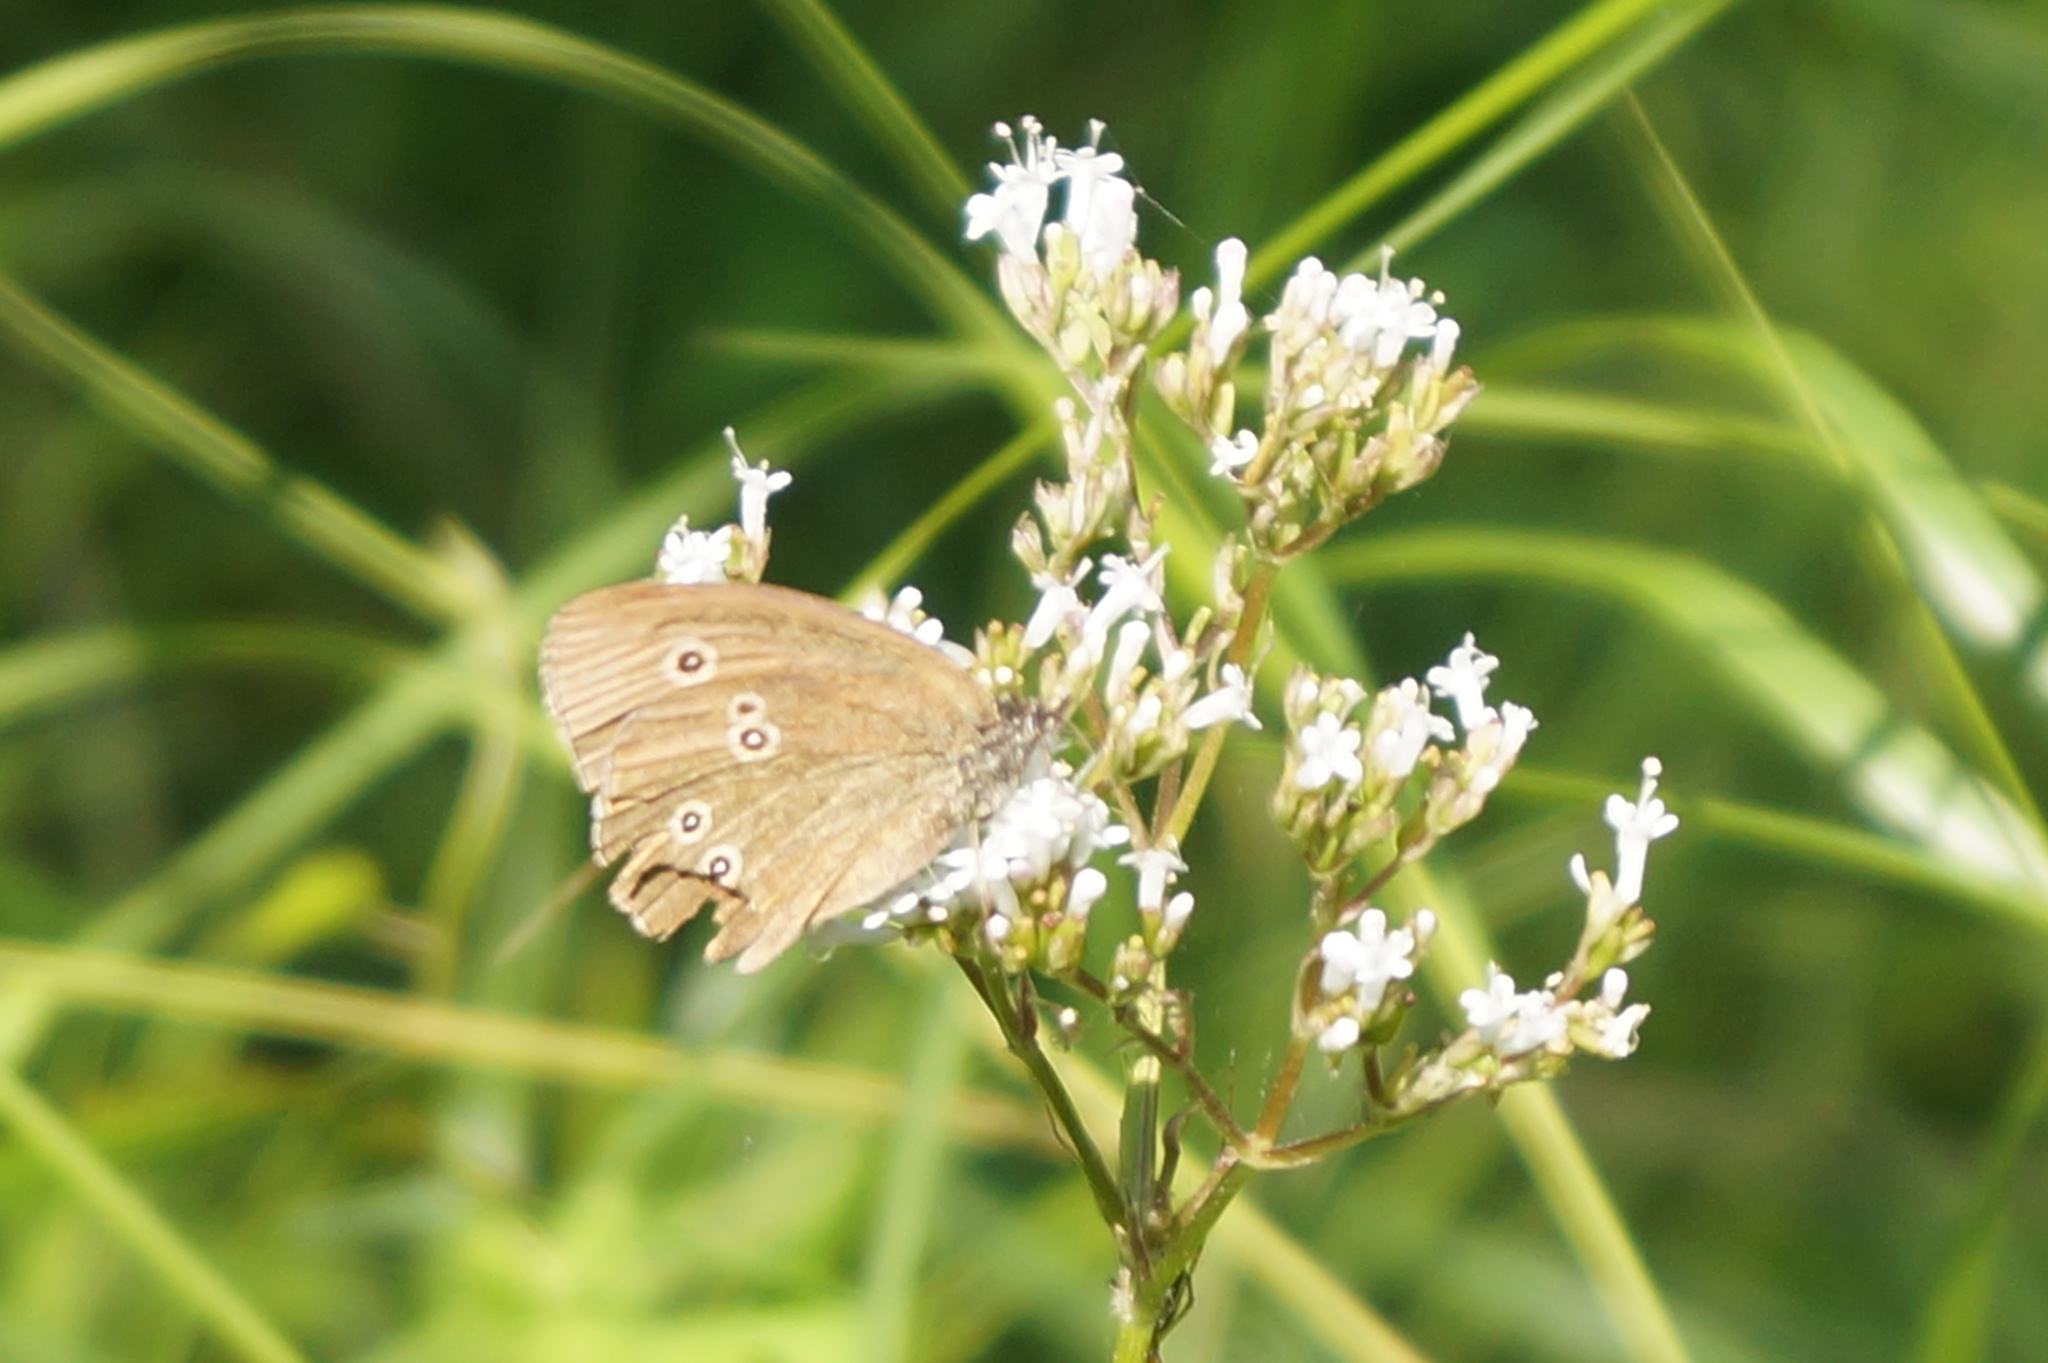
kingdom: Animalia
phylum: Arthropoda
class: Insecta
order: Lepidoptera
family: Nymphalidae
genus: Aphantopus
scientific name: Aphantopus hyperantus
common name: Ringlet
